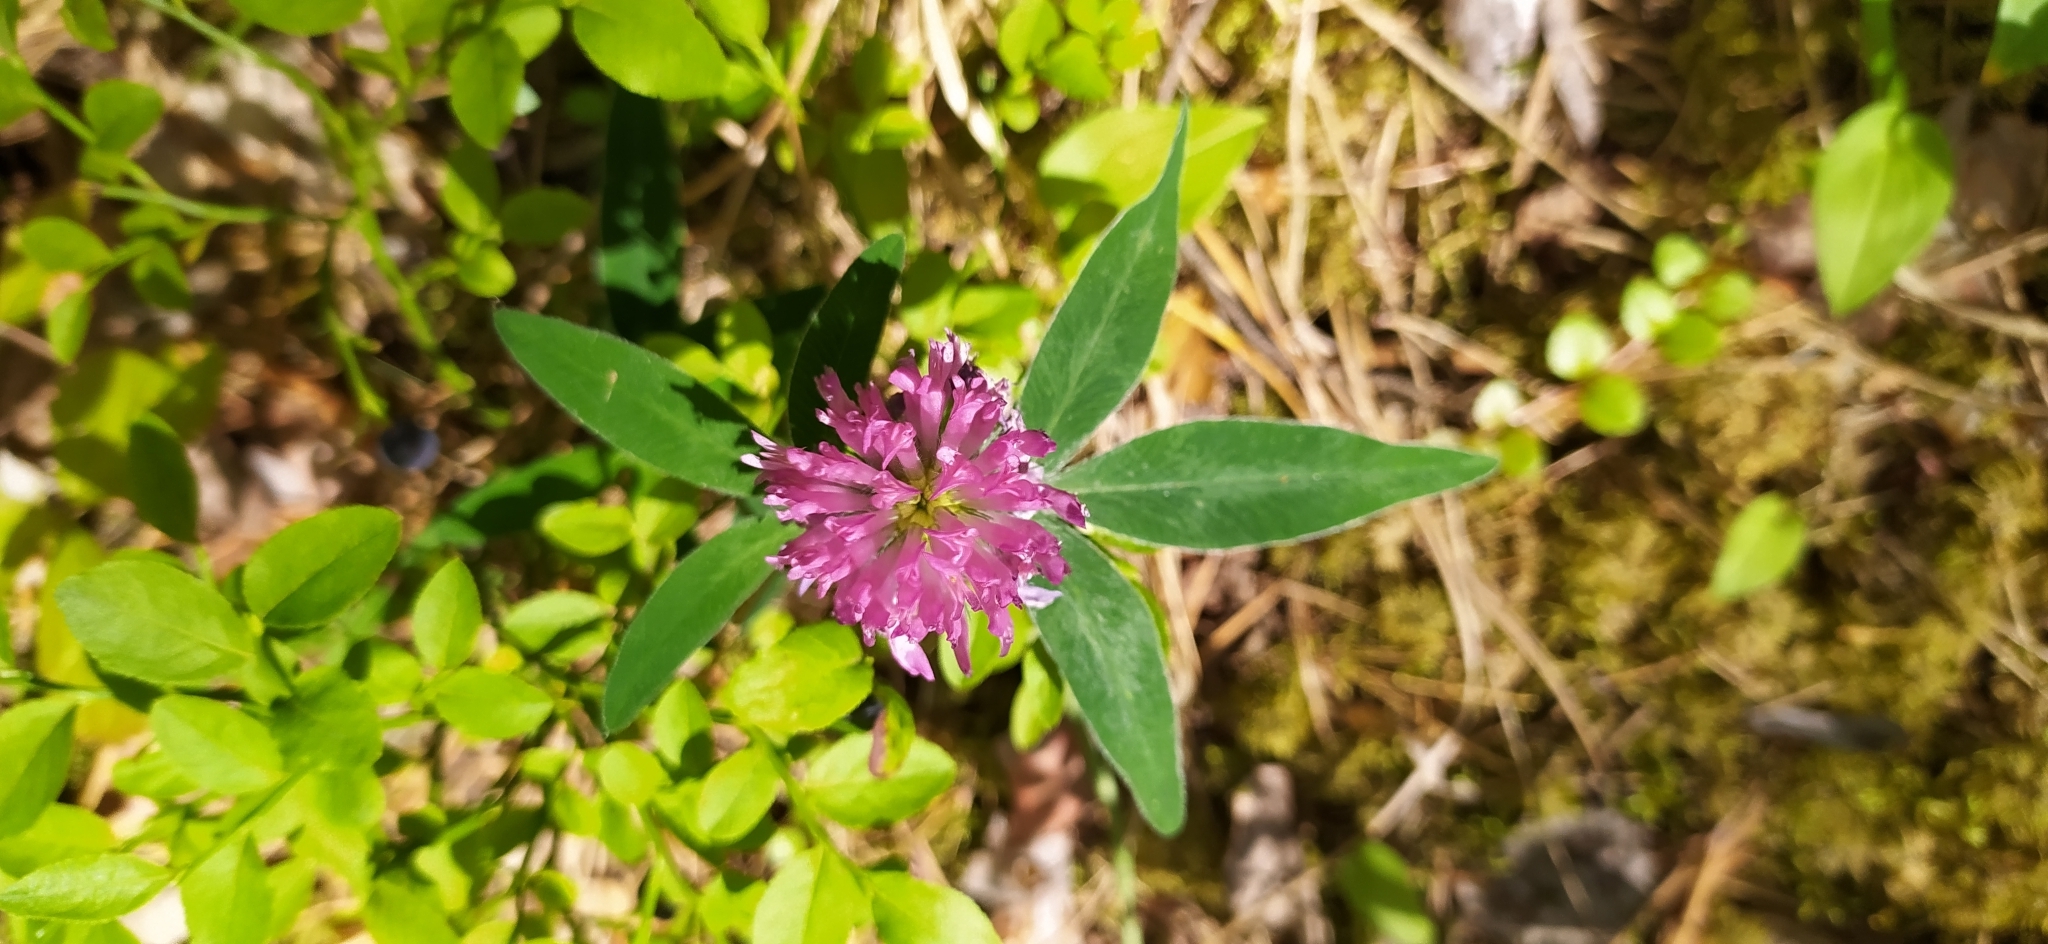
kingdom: Plantae
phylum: Tracheophyta
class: Magnoliopsida
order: Fabales
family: Fabaceae
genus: Trifolium
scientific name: Trifolium medium
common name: Zigzag clover
